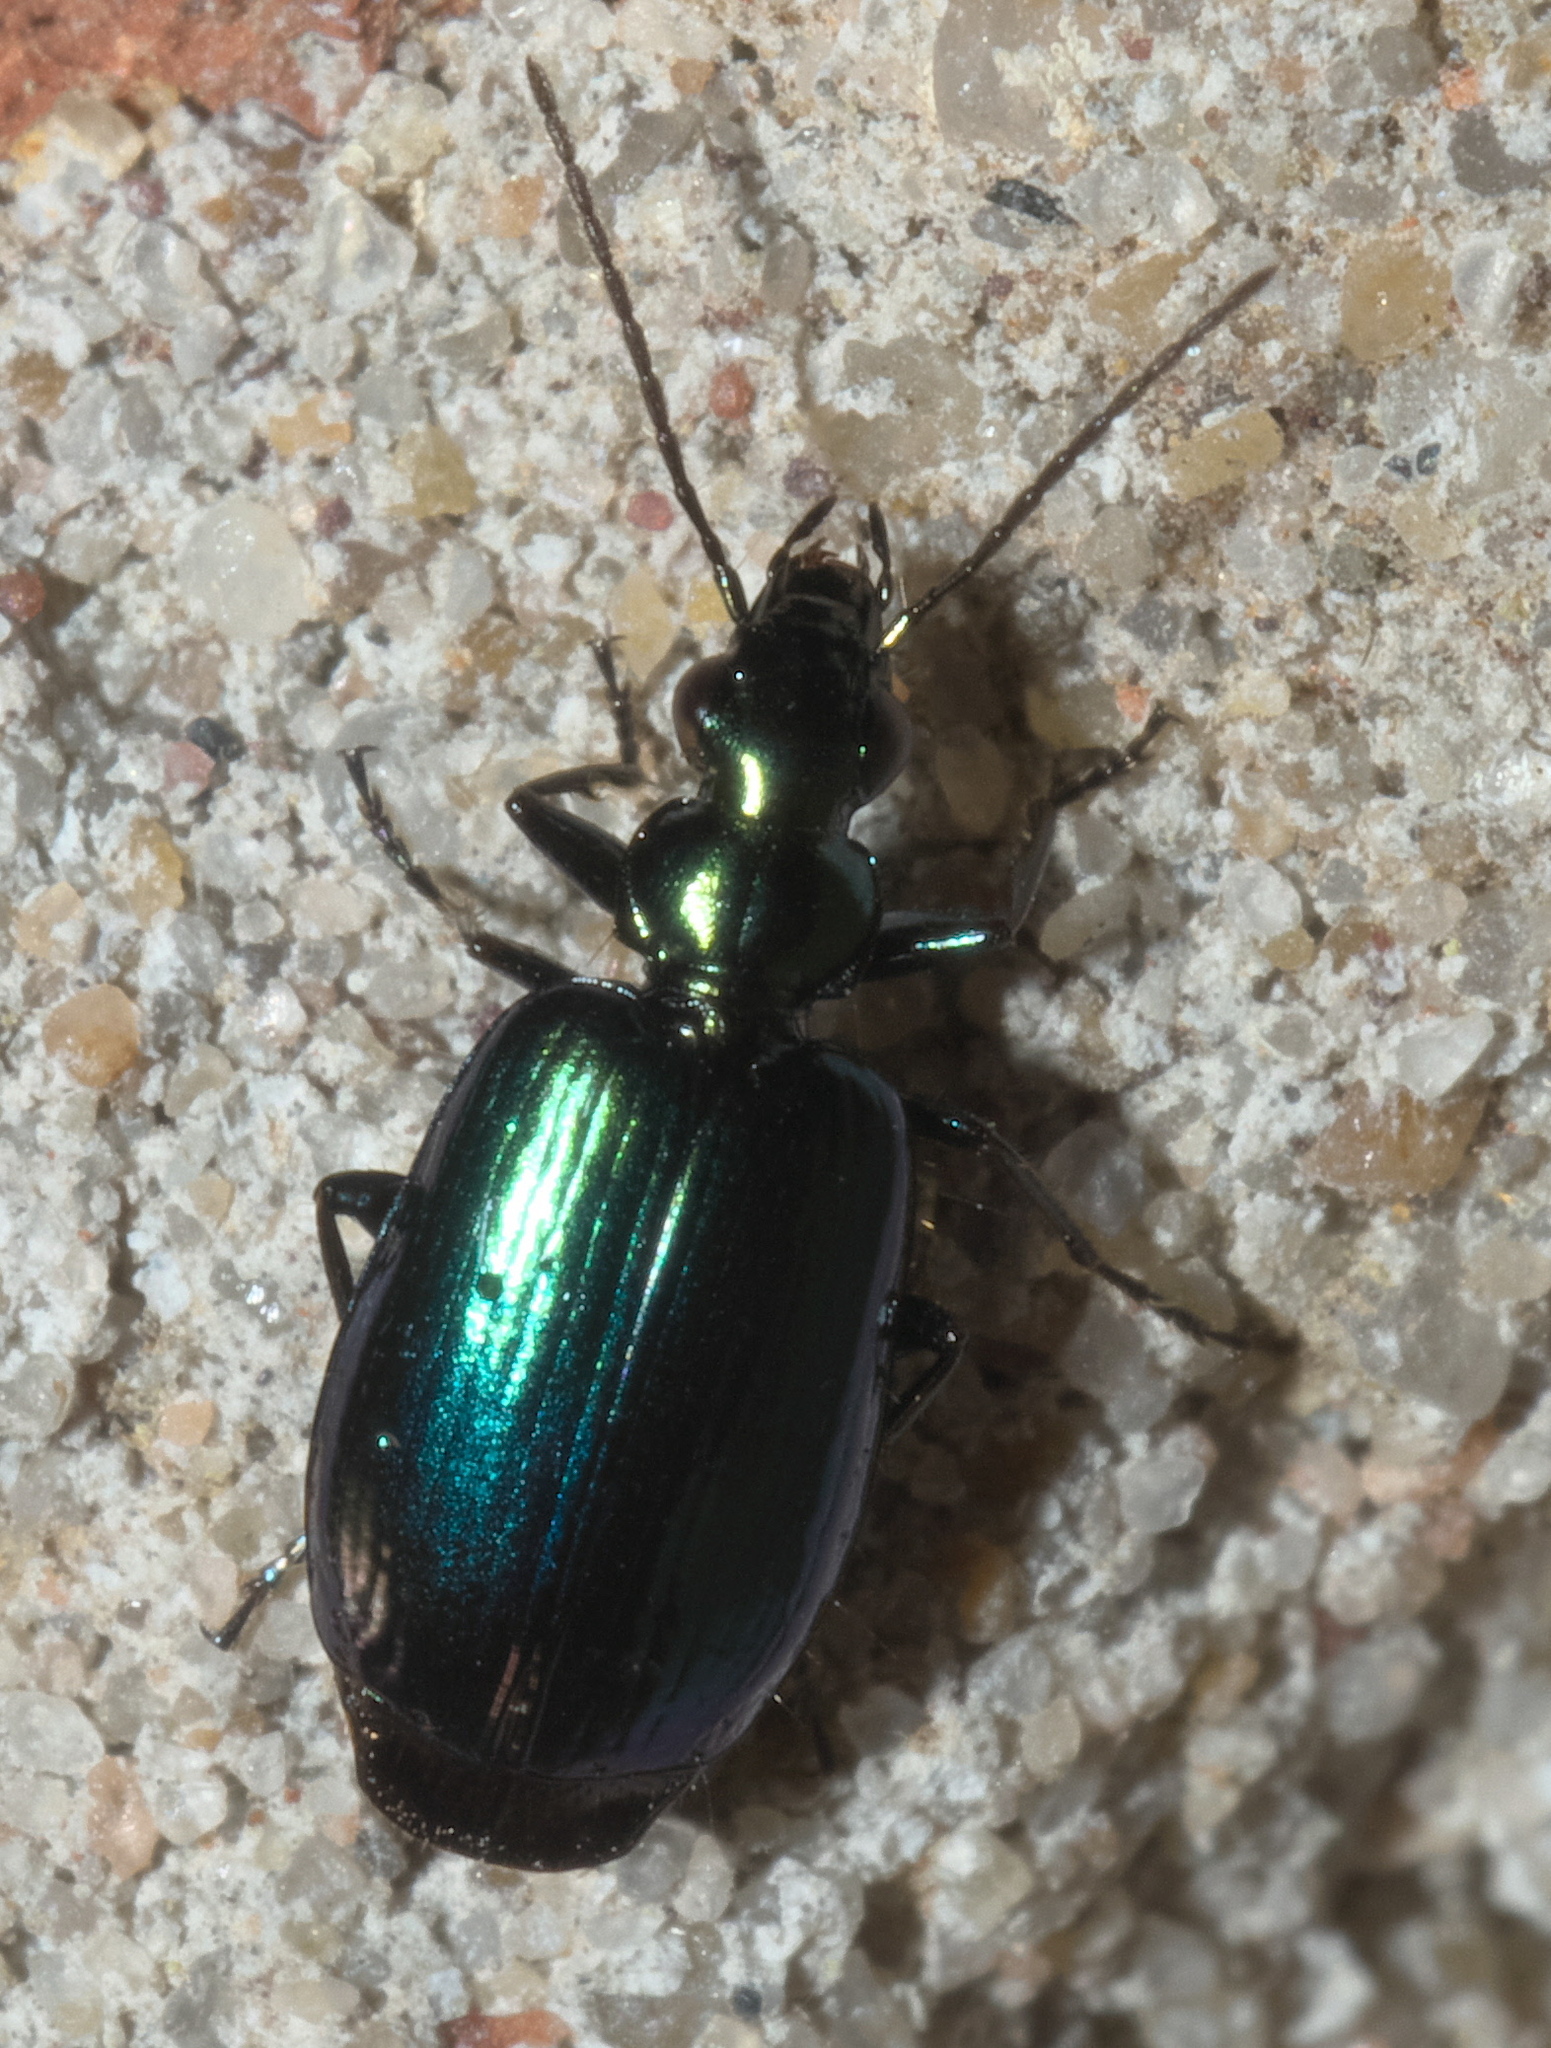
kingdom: Animalia
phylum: Arthropoda
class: Insecta
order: Coleoptera
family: Carabidae
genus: Lebia
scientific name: Lebia viridis
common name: Flower lebia beetle
